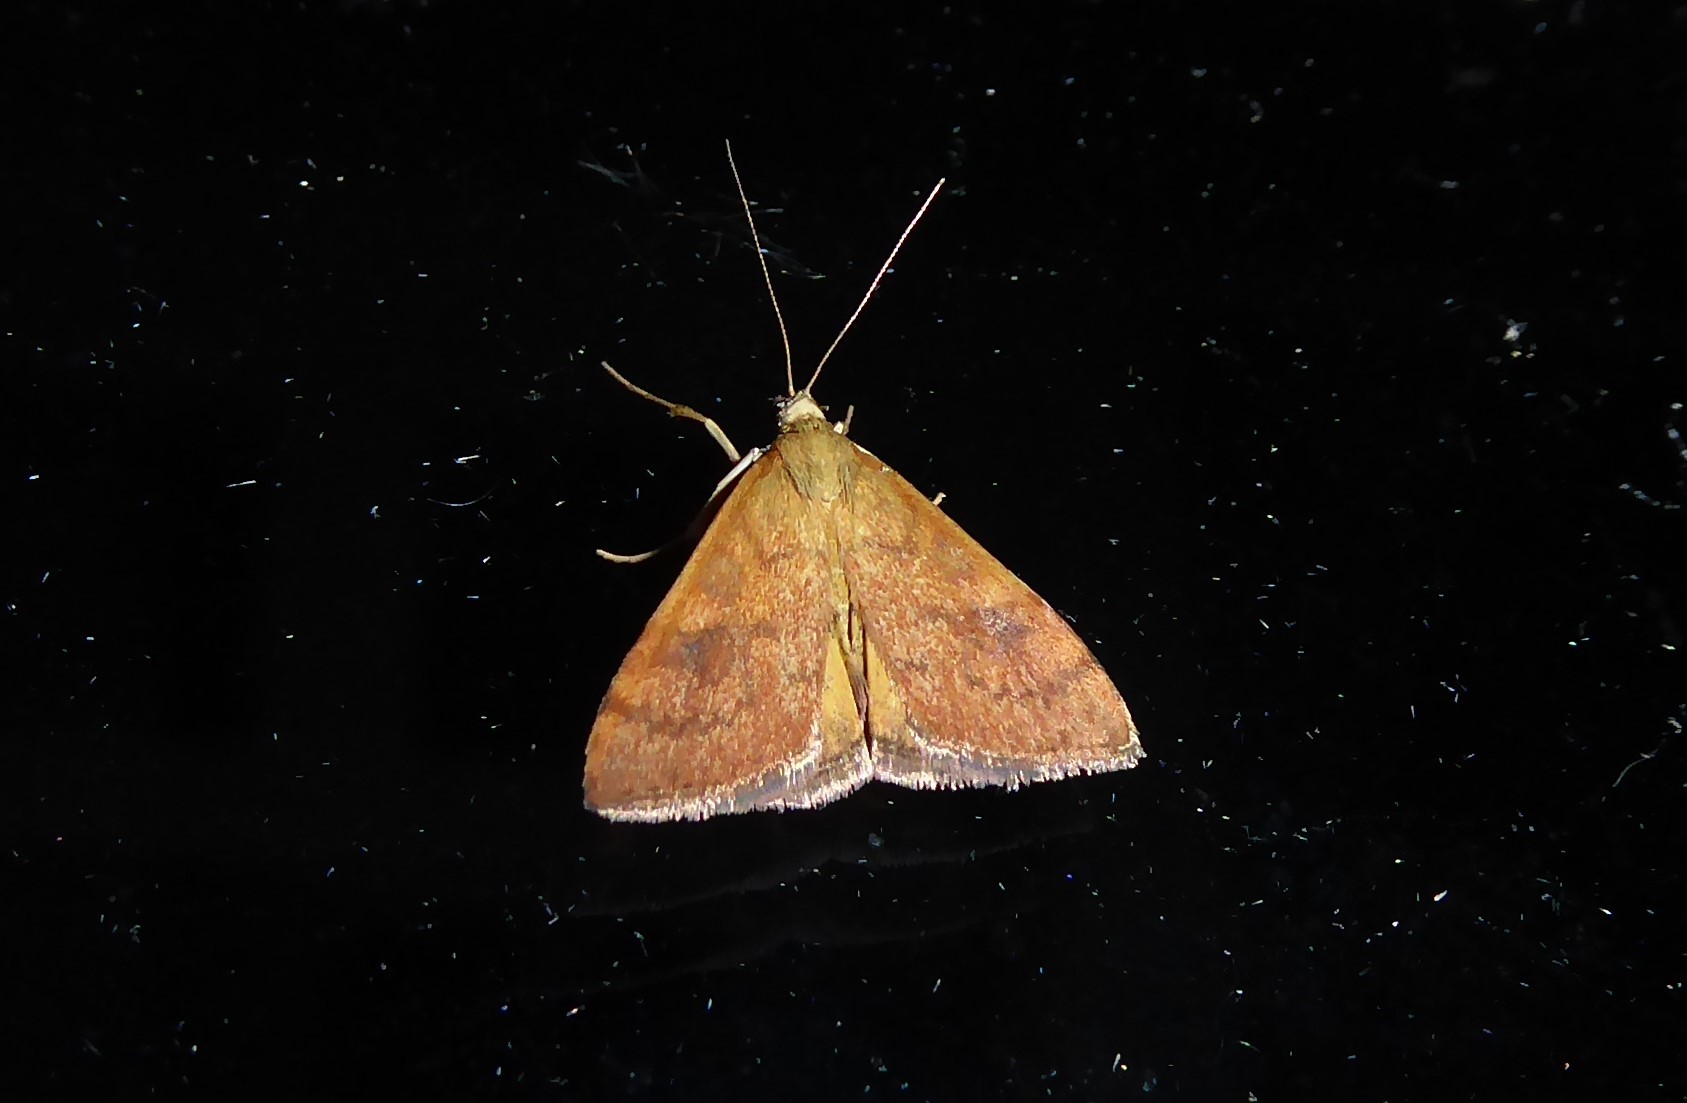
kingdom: Animalia
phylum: Arthropoda
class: Insecta
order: Lepidoptera
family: Crambidae
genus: Udea
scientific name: Udea Mnesictena flavidalis
